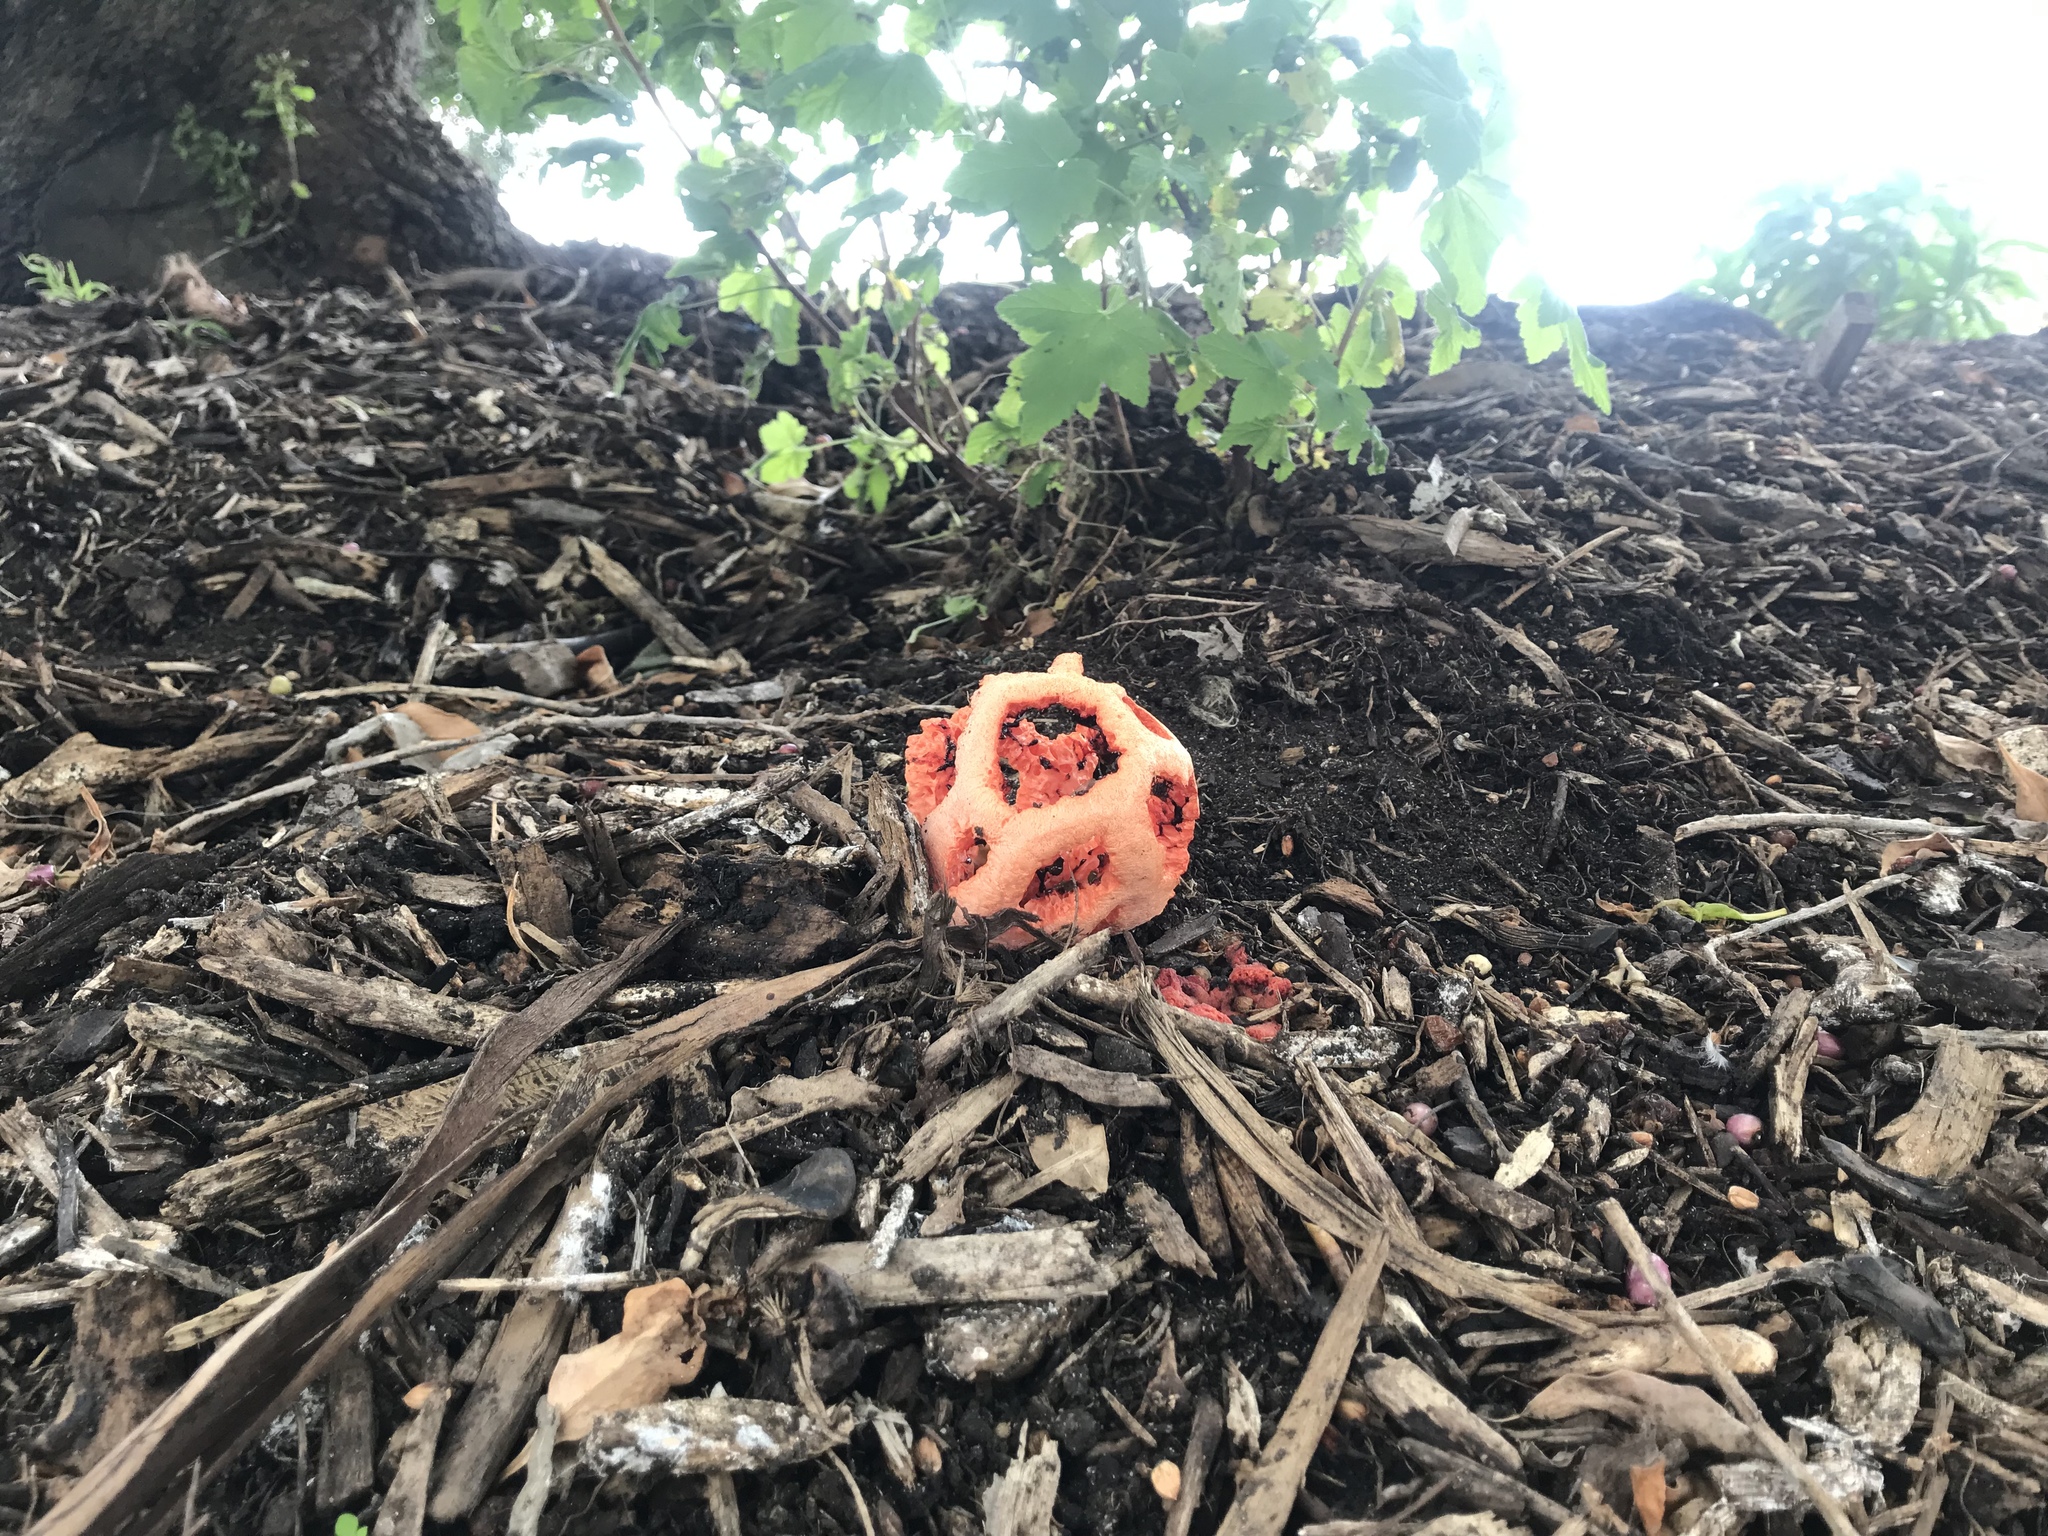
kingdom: Fungi
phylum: Basidiomycota
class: Agaricomycetes
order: Phallales
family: Phallaceae
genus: Clathrus
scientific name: Clathrus ruber
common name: Red cage
